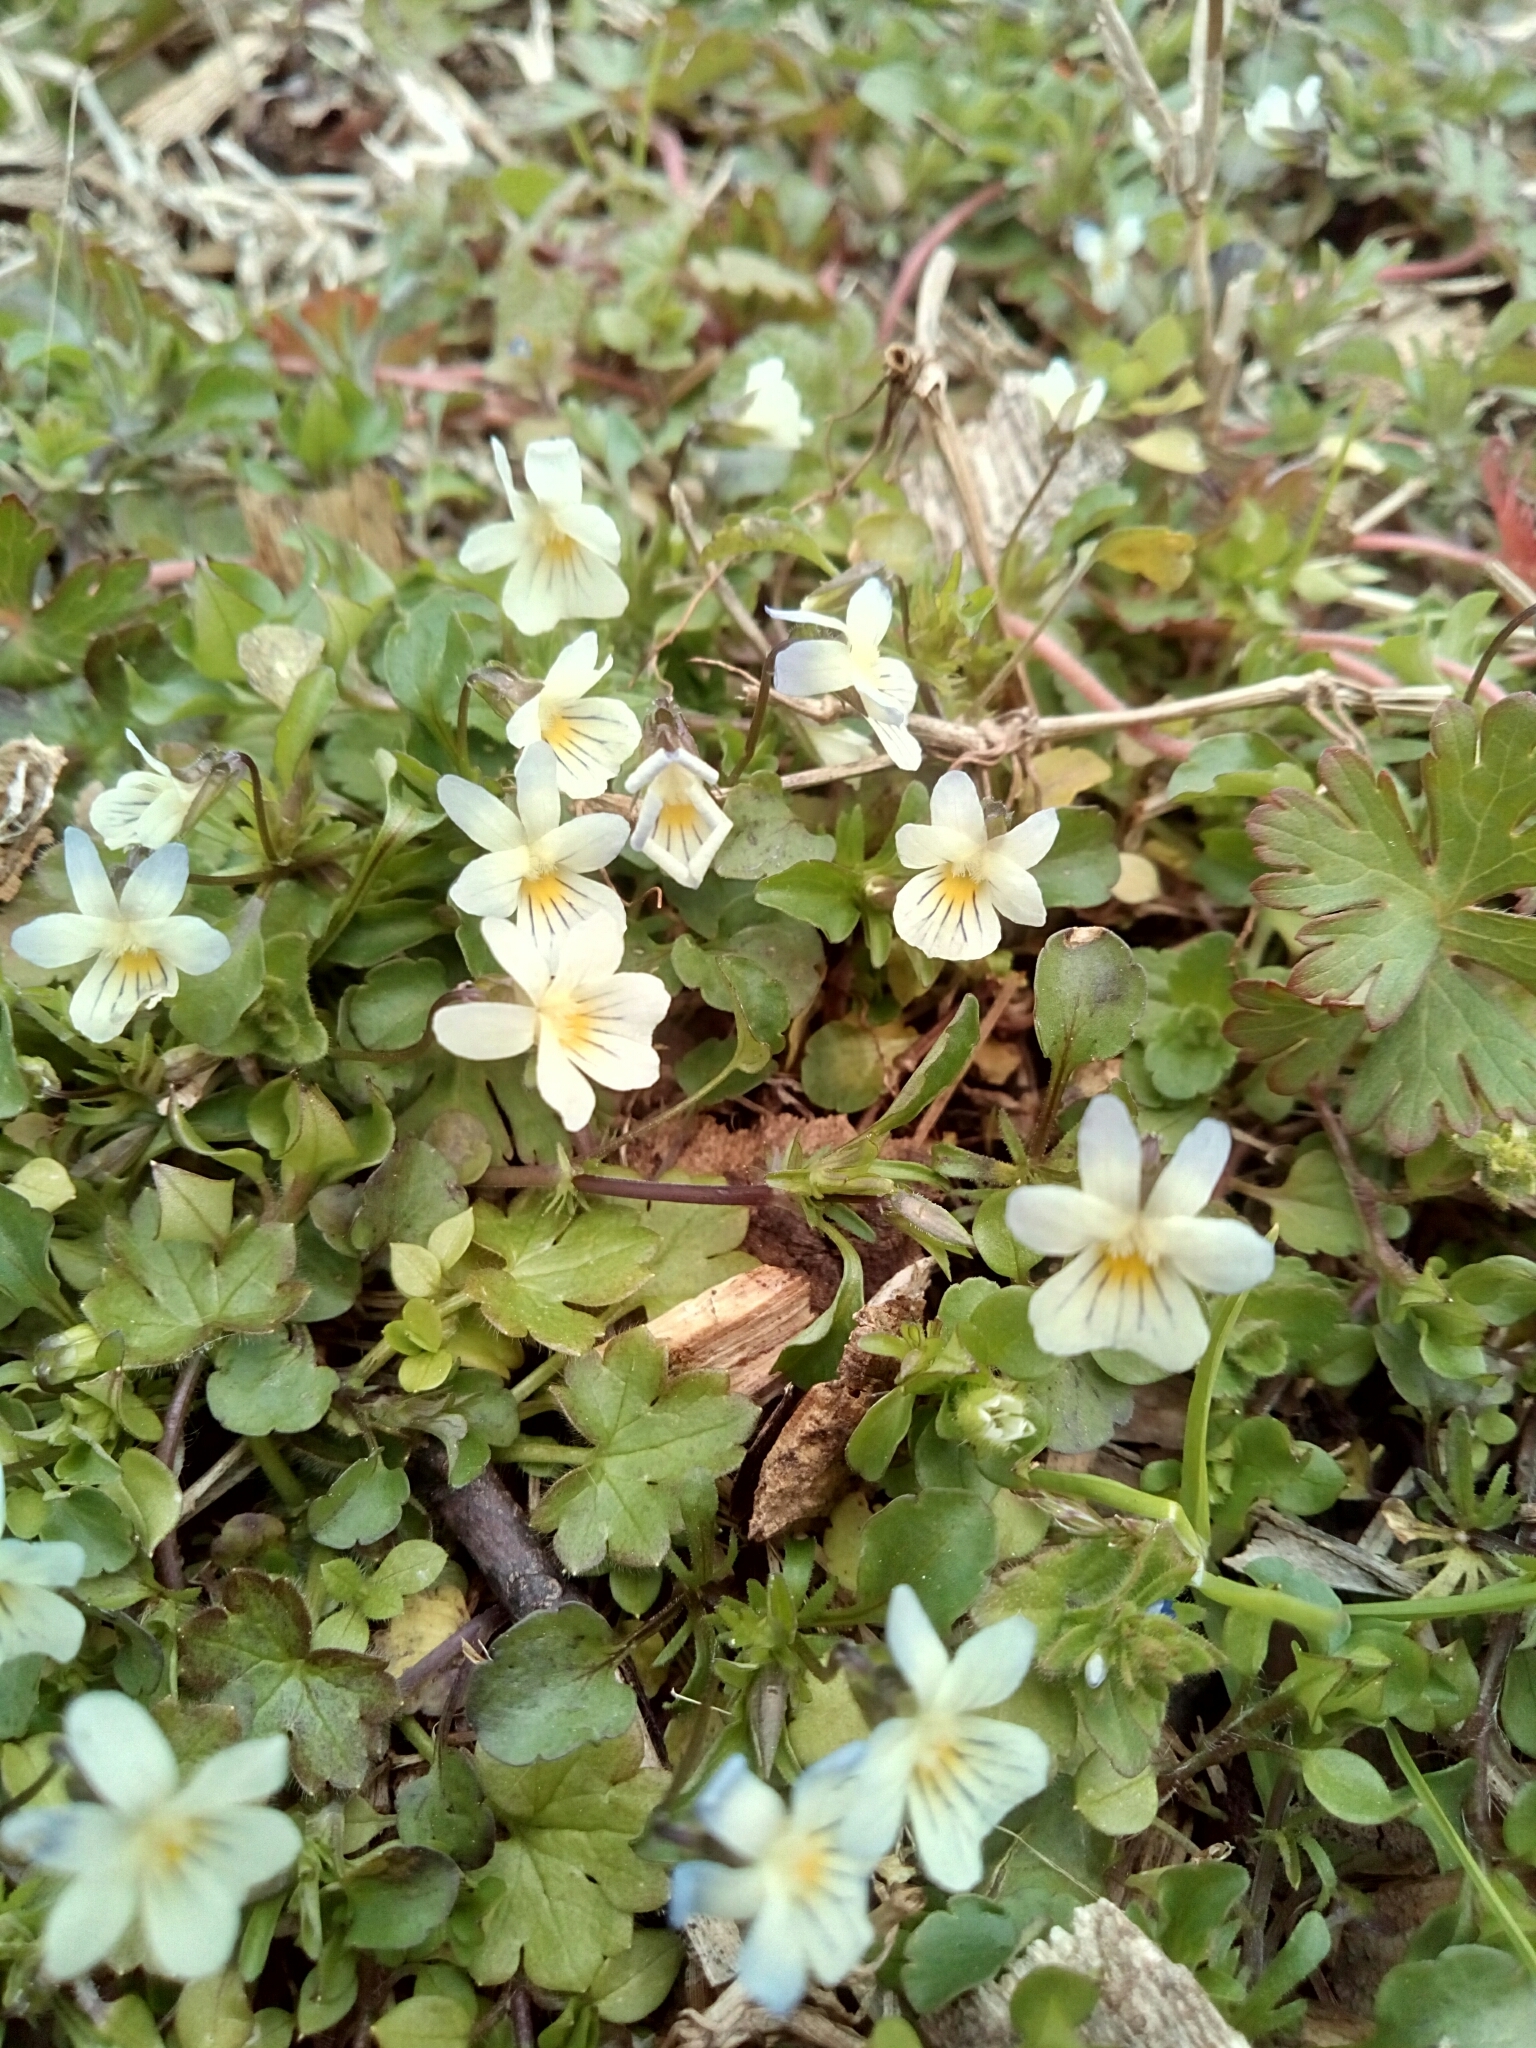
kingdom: Plantae
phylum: Tracheophyta
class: Magnoliopsida
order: Malpighiales
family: Violaceae
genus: Viola
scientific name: Viola rafinesquei
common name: American field pansy
